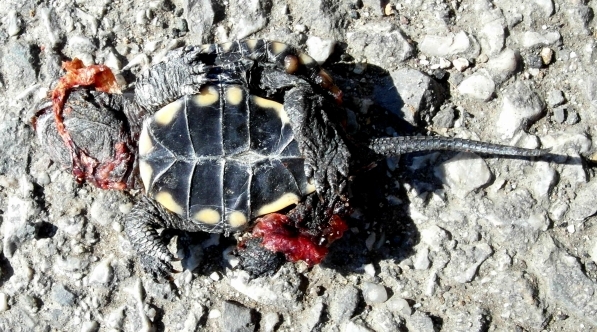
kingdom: Animalia
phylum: Chordata
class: Testudines
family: Emydidae
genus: Emys
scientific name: Emys orbicularis
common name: European pond turtle
